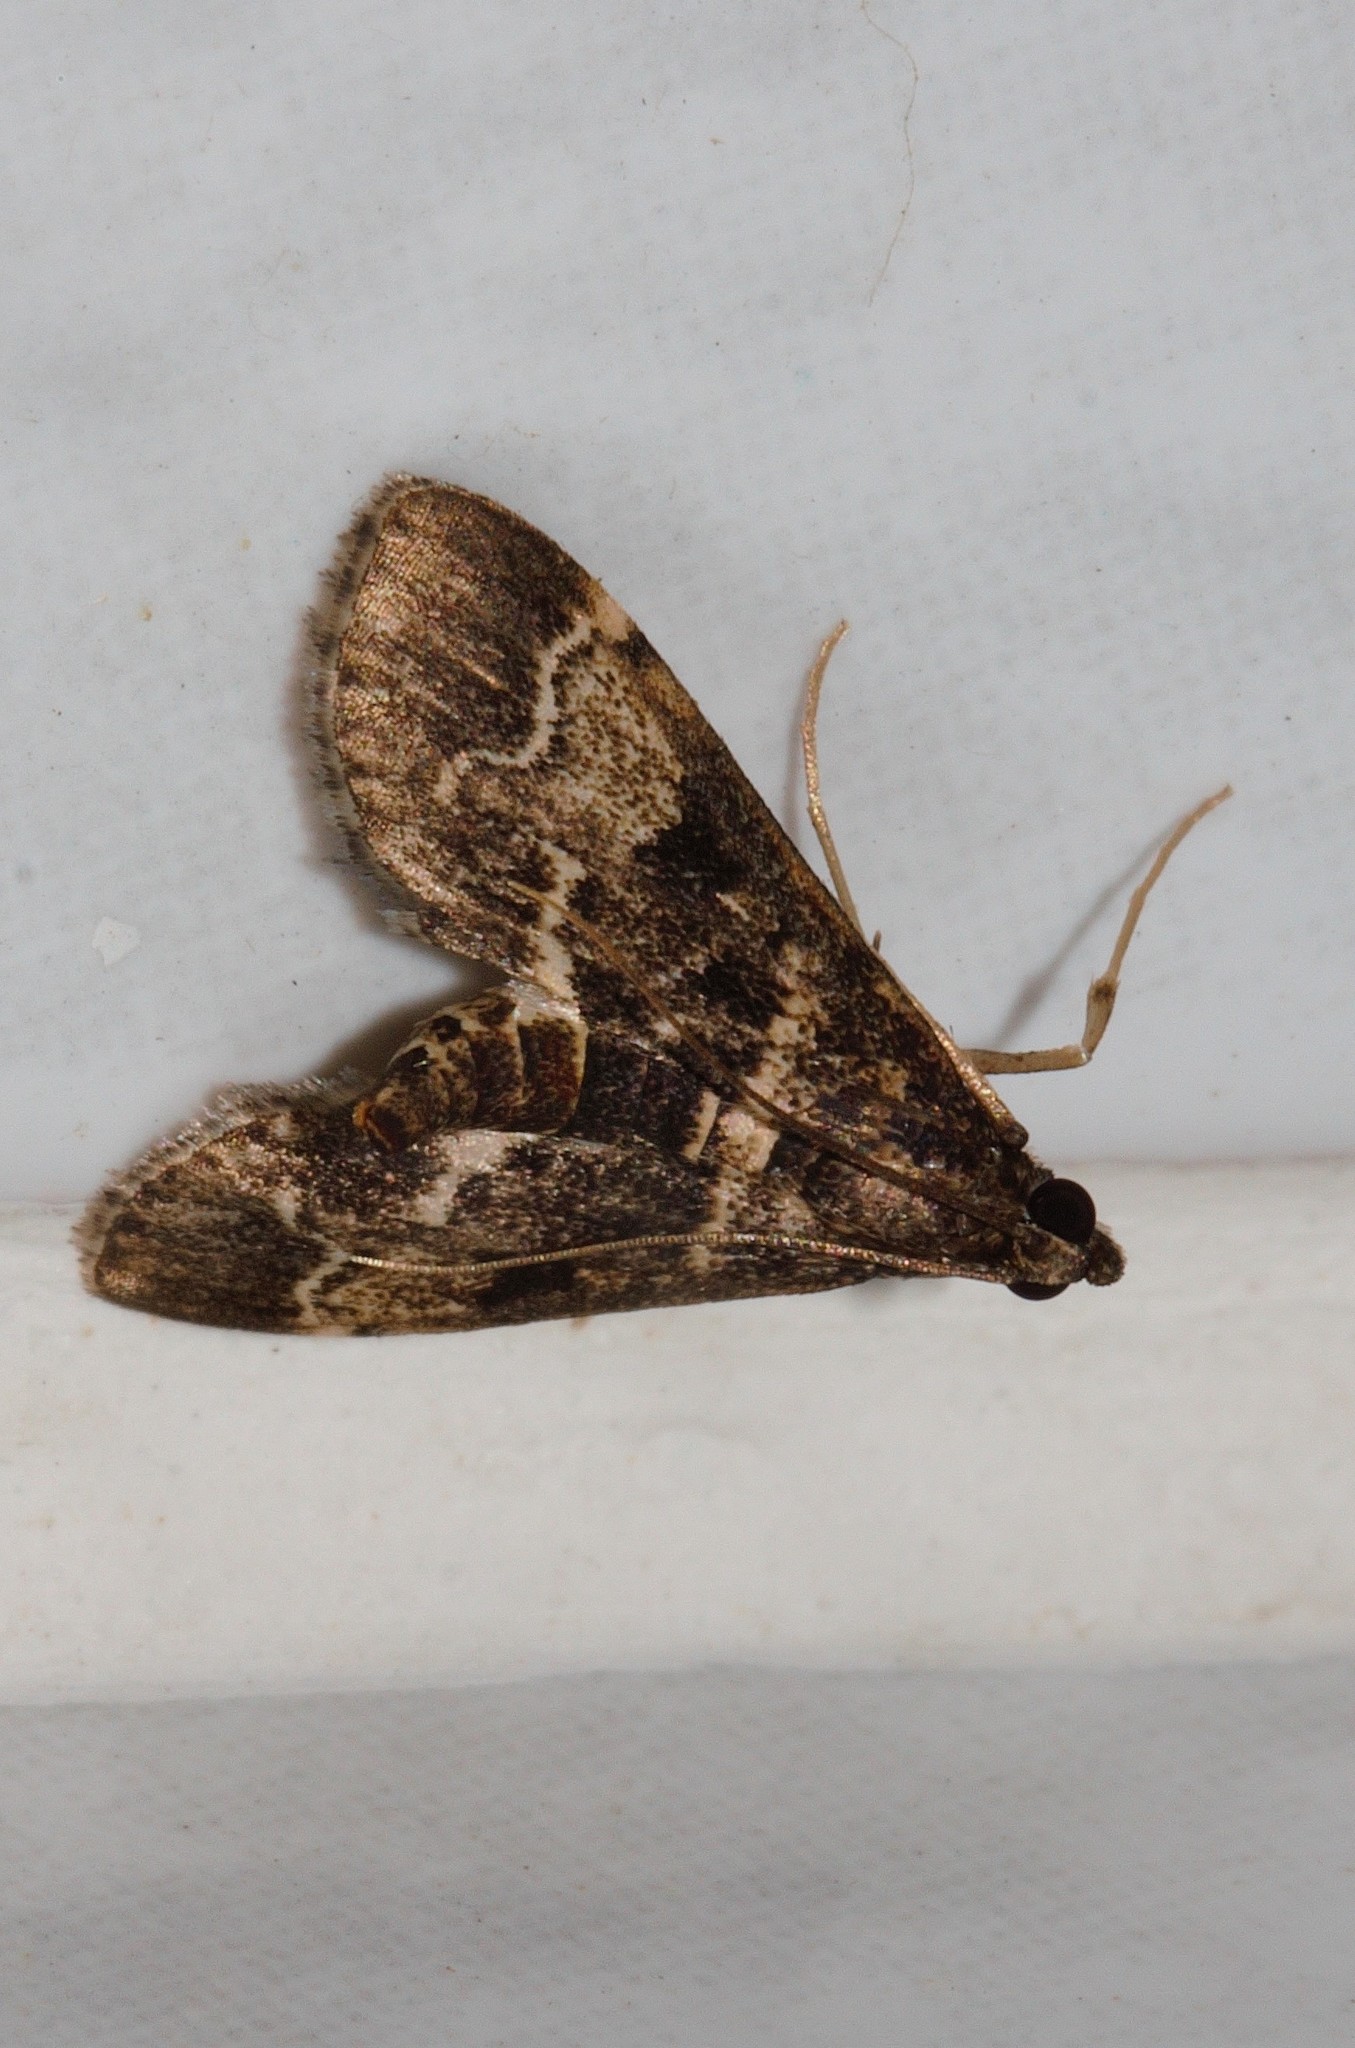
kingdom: Animalia
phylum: Arthropoda
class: Insecta
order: Lepidoptera
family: Crambidae
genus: Duponchelia
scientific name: Duponchelia fovealis
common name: Crambid moth
